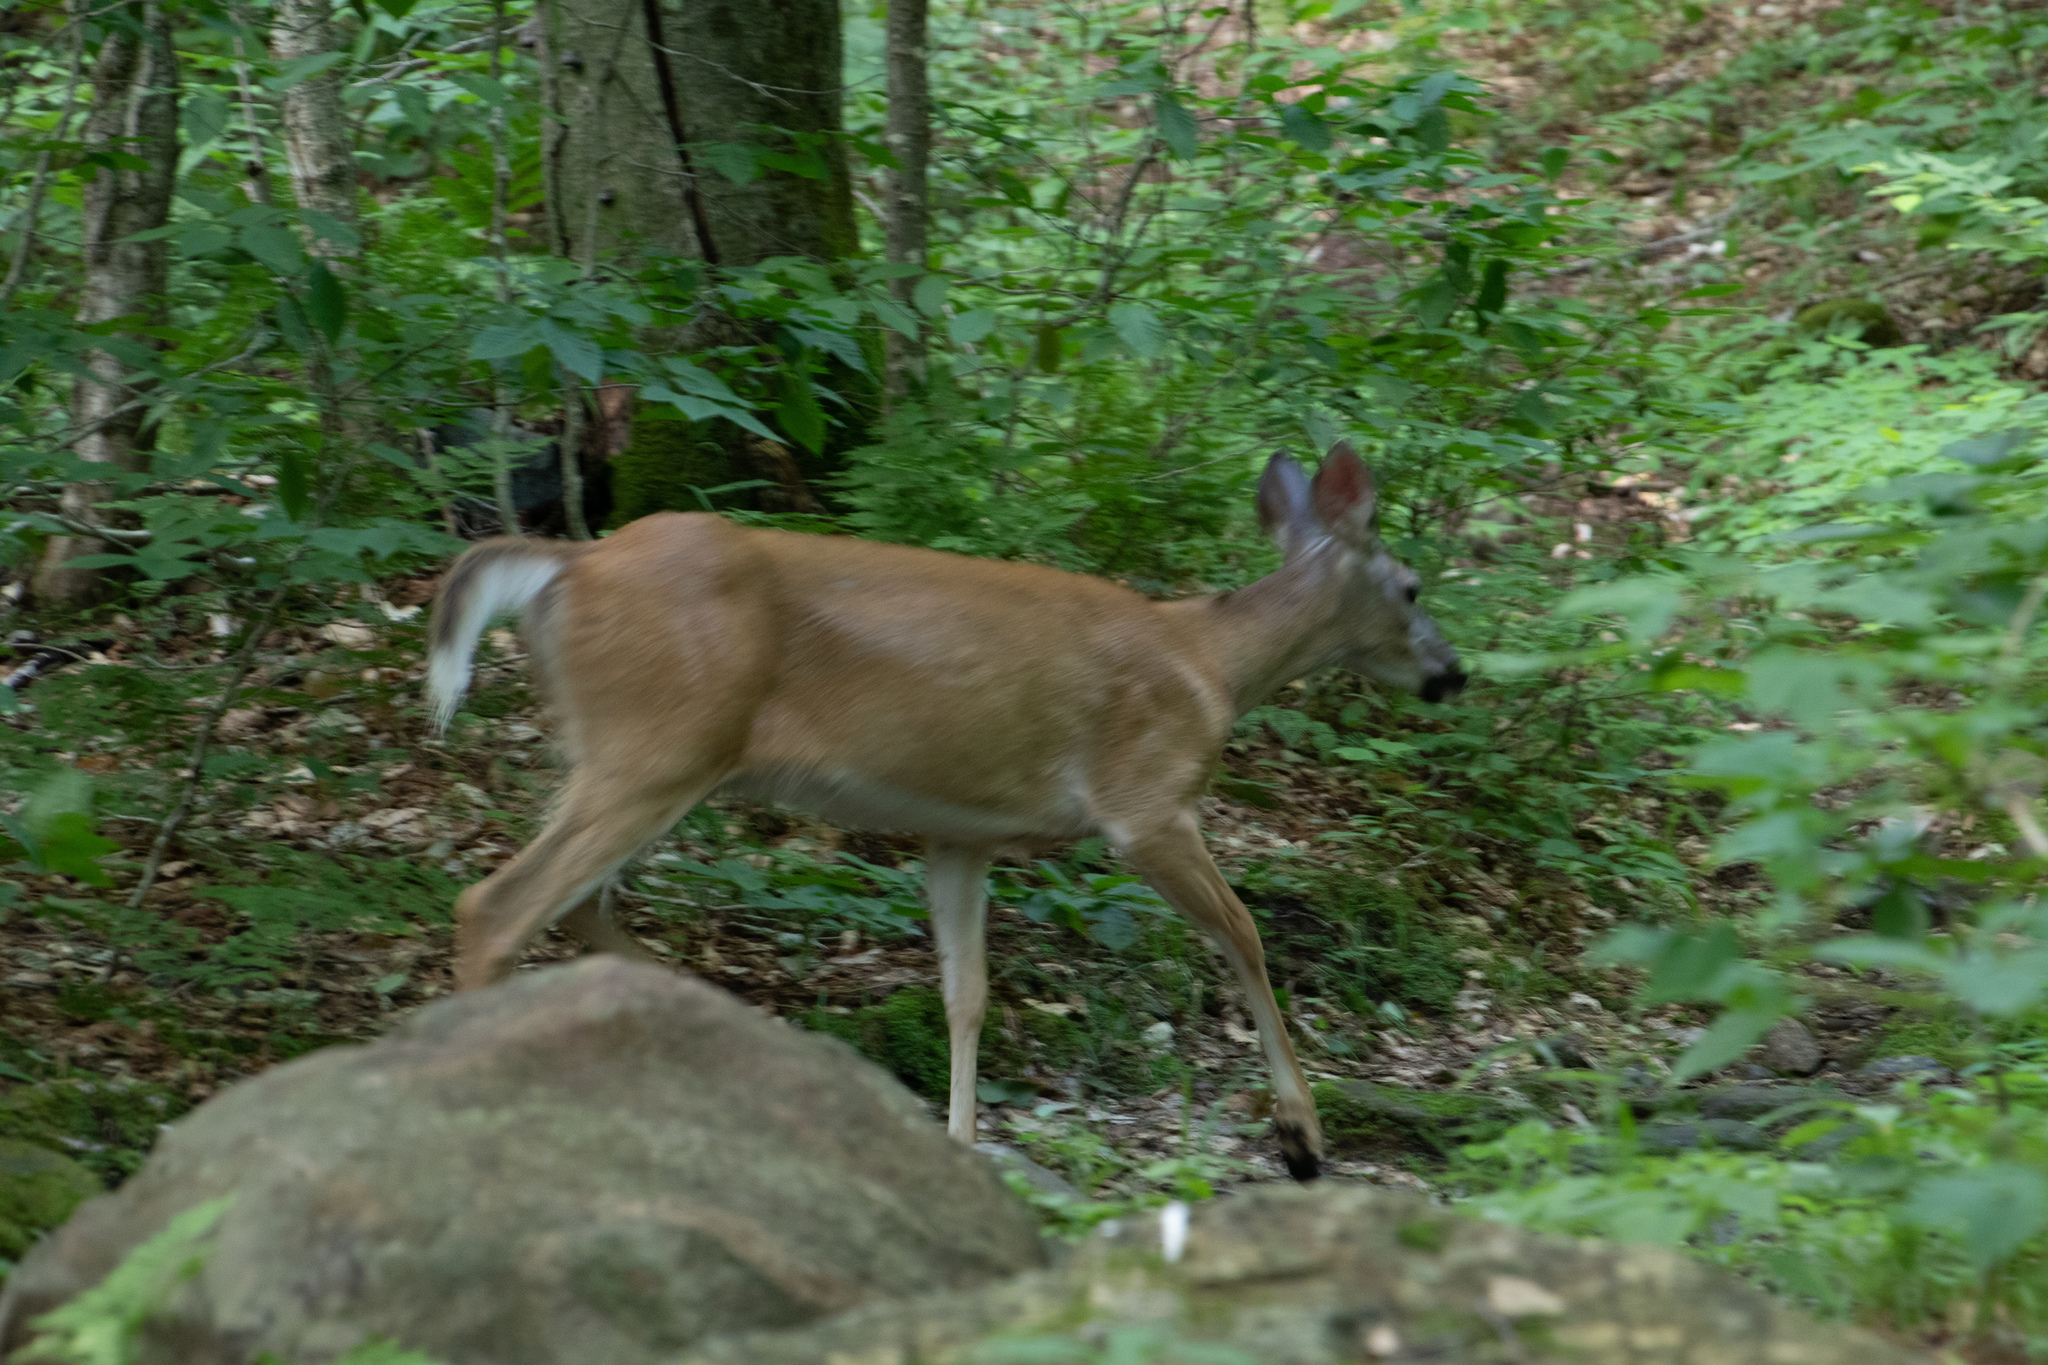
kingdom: Animalia
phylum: Chordata
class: Mammalia
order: Artiodactyla
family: Cervidae
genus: Odocoileus
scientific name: Odocoileus virginianus
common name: White-tailed deer
